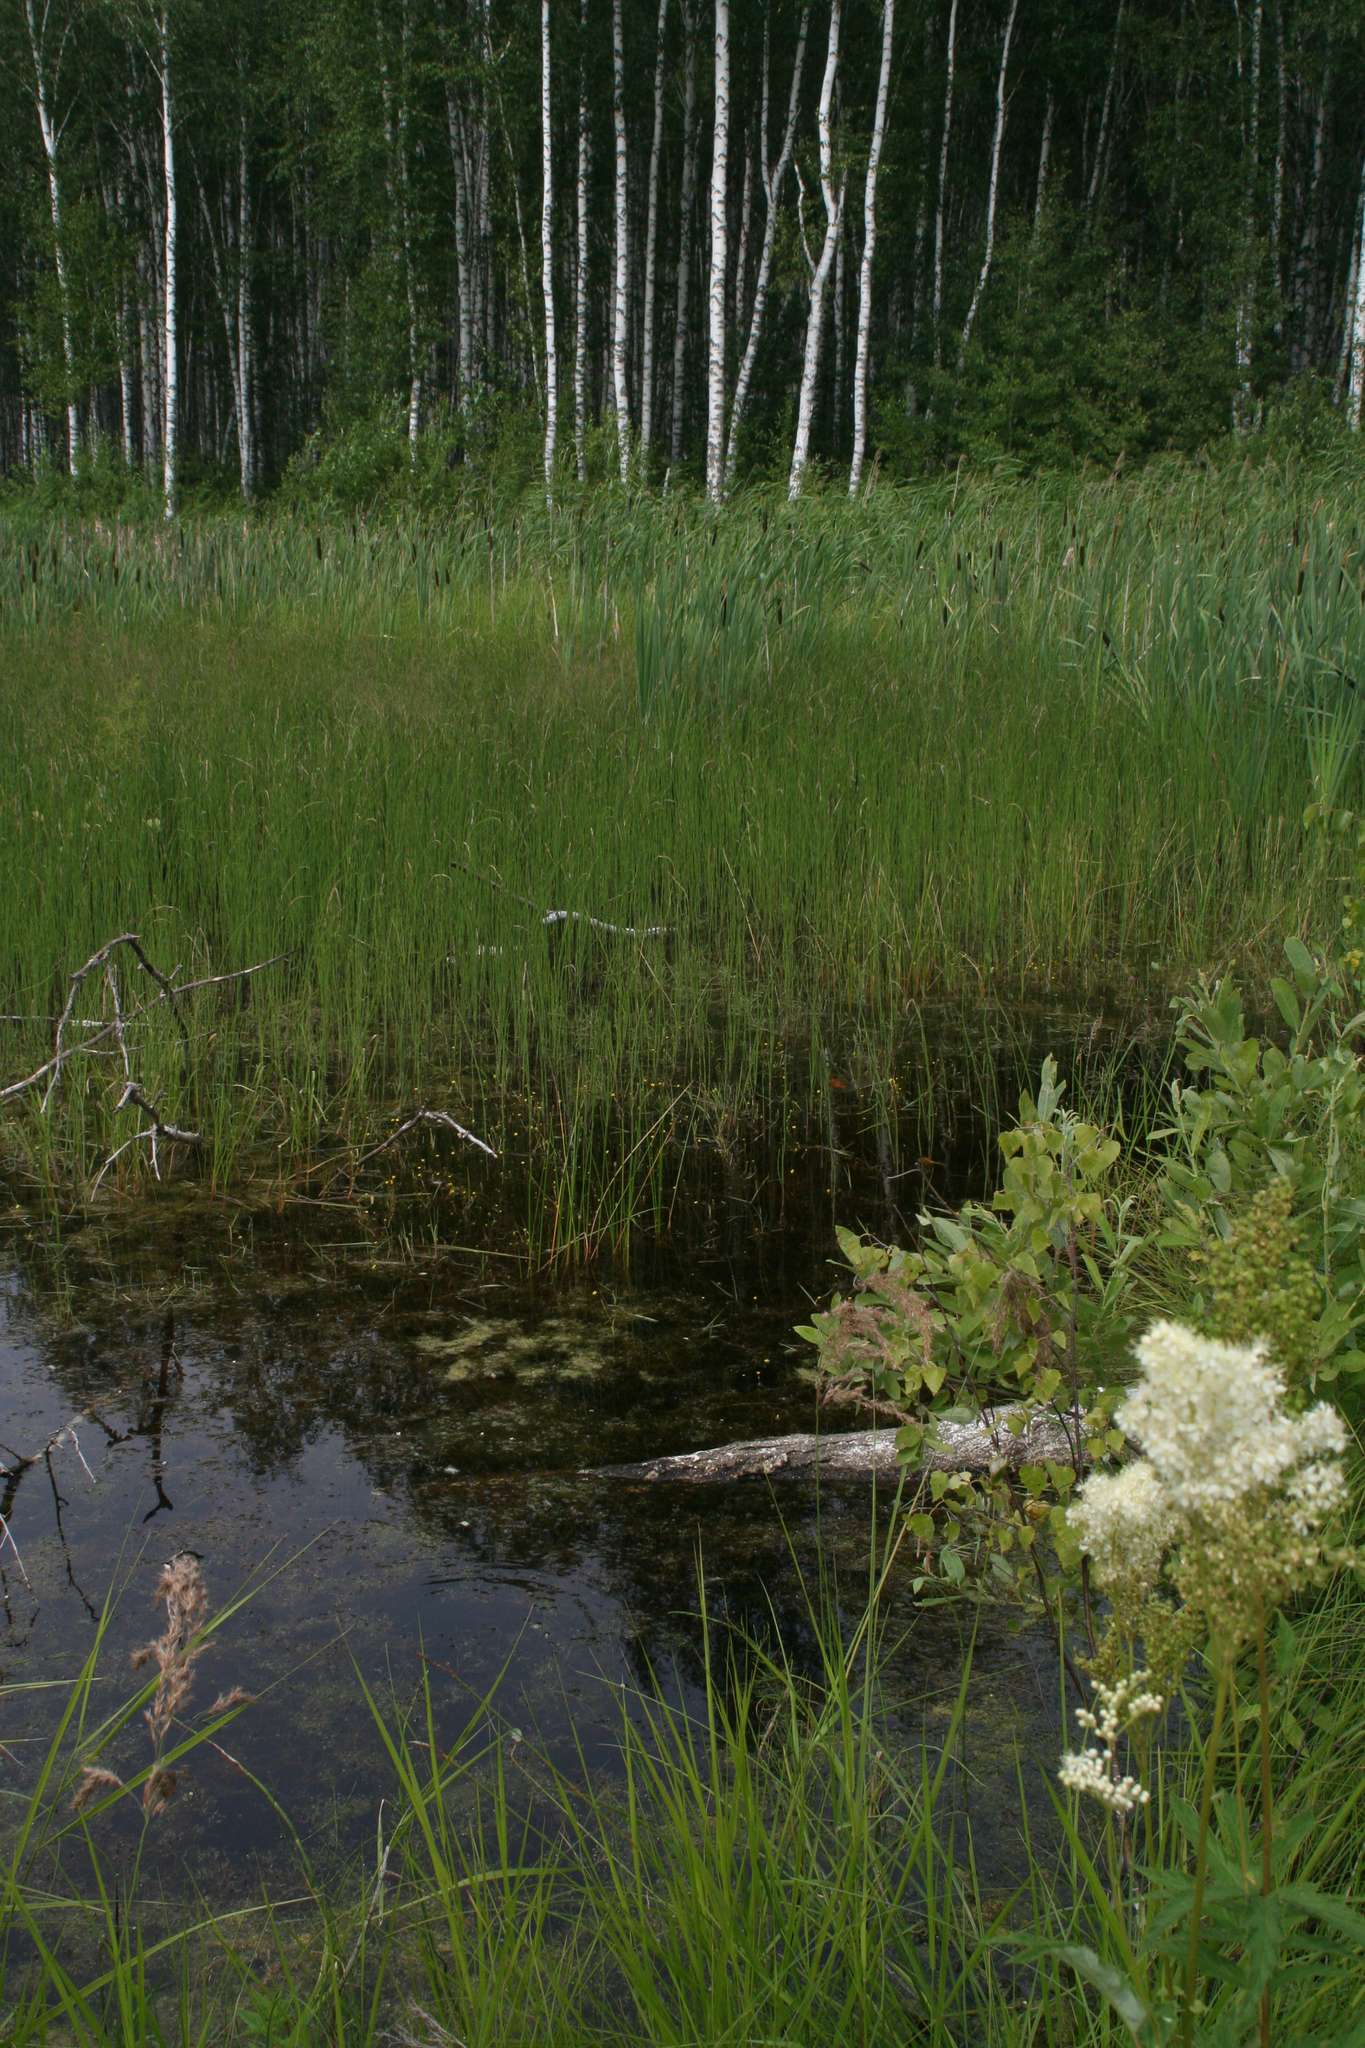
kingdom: Plantae
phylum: Tracheophyta
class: Magnoliopsida
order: Rosales
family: Rosaceae
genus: Filipendula
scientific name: Filipendula ulmaria
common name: Meadowsweet
